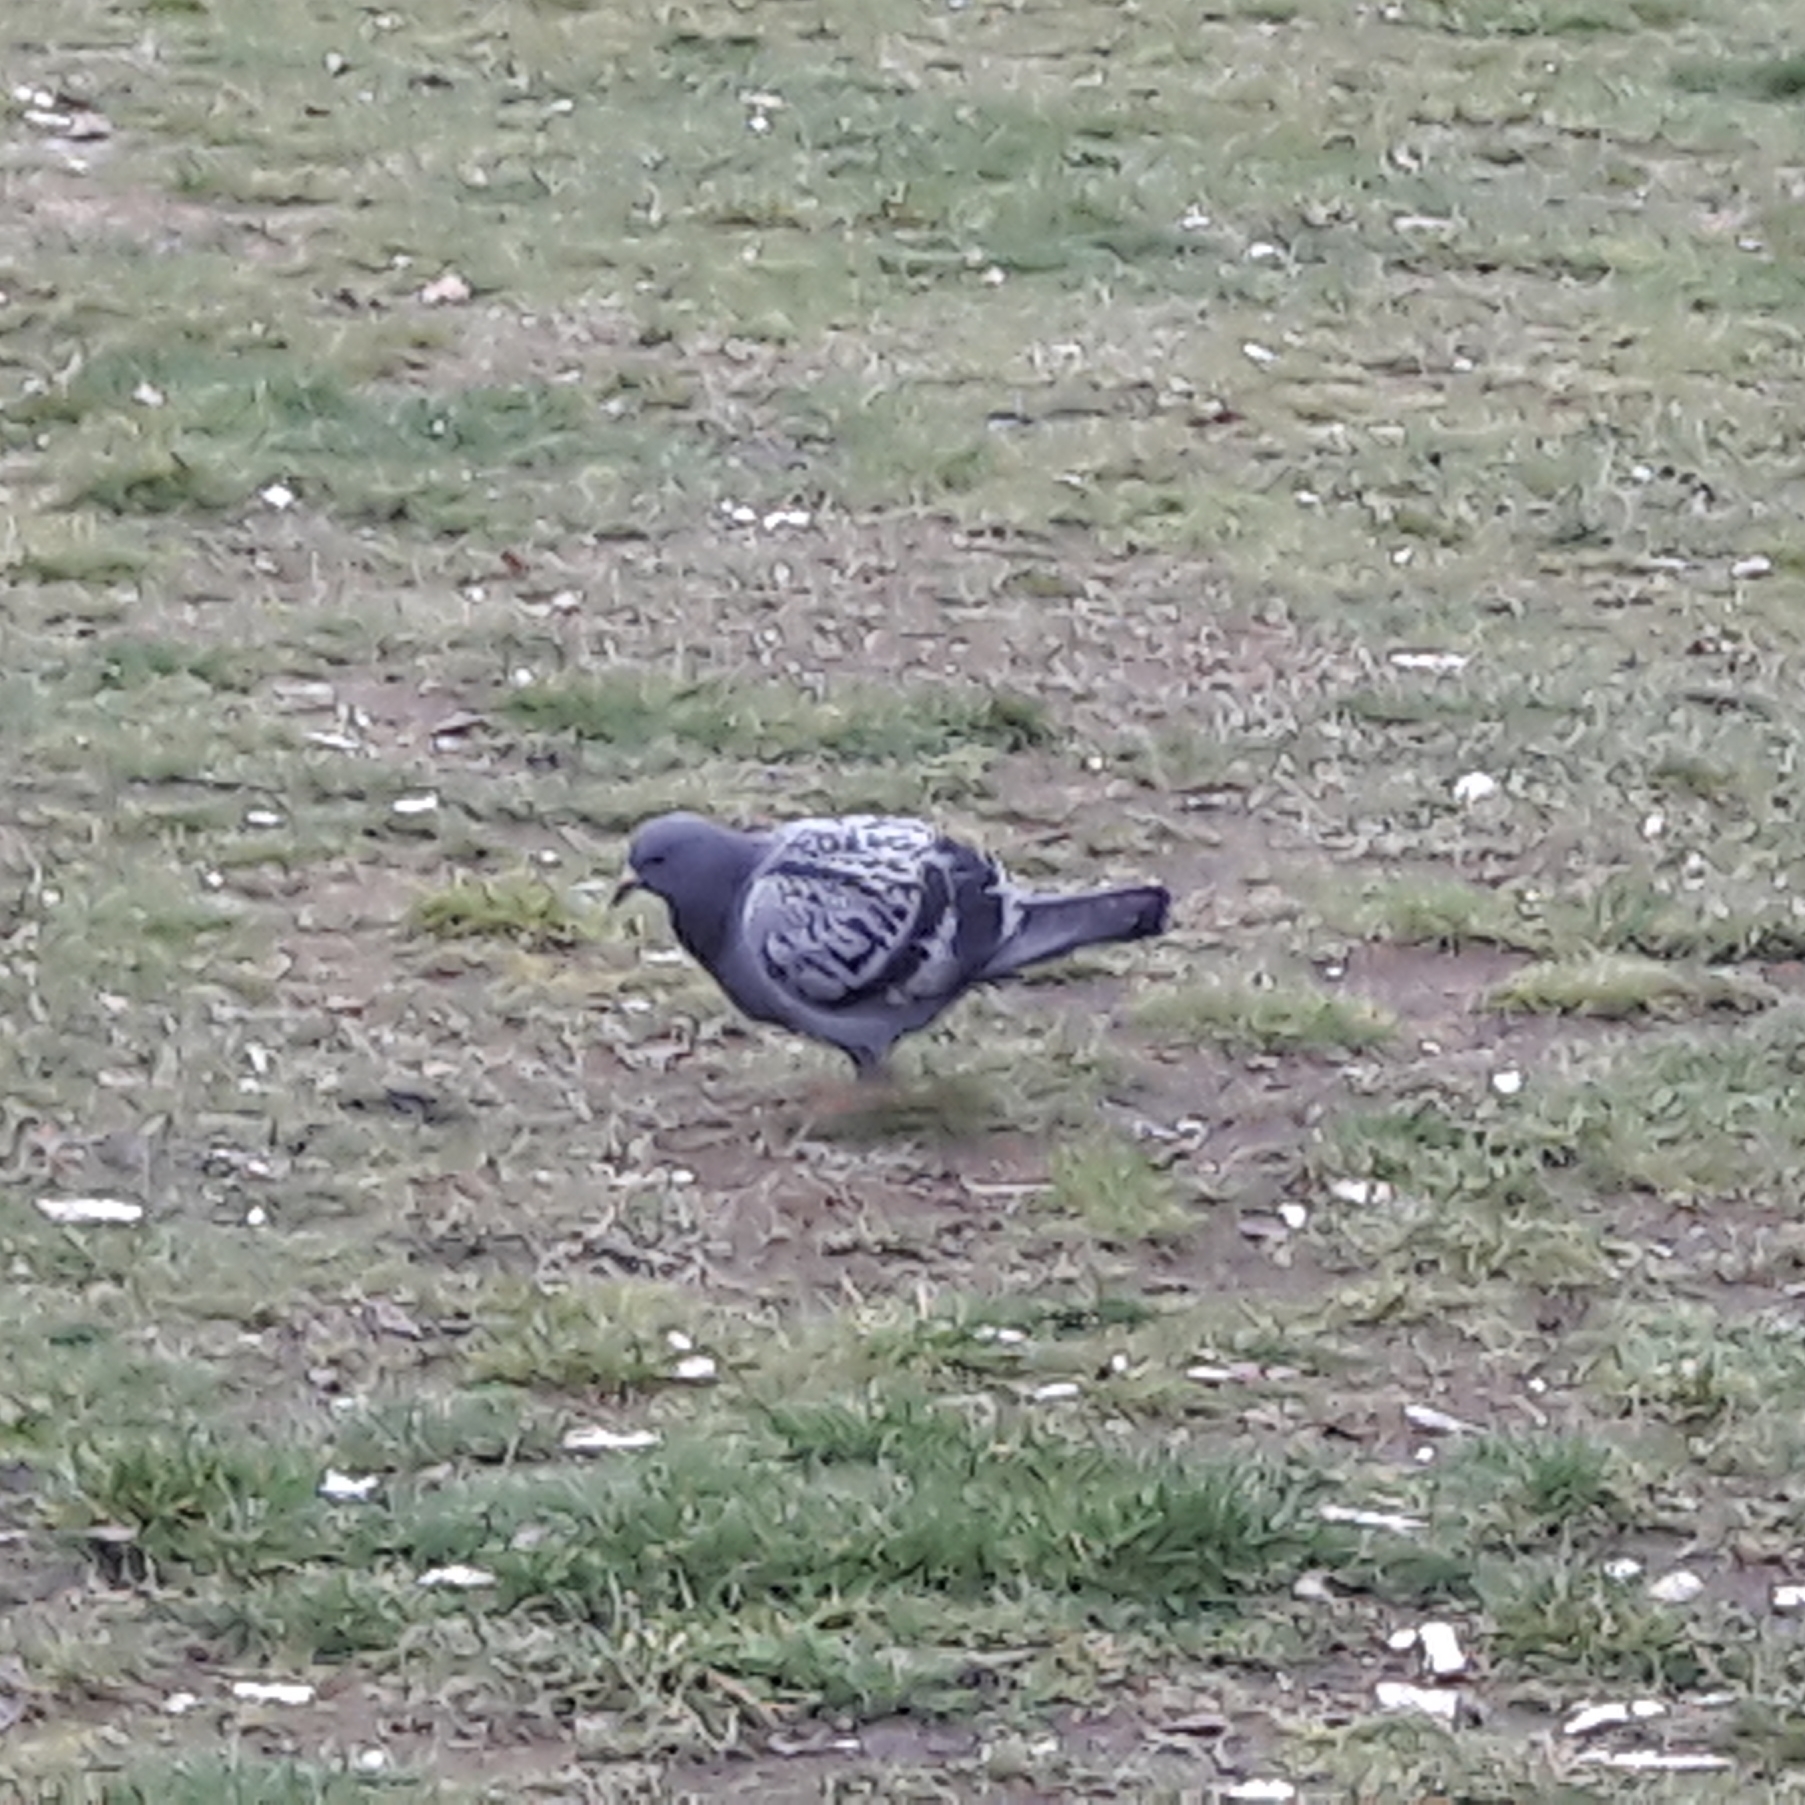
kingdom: Animalia
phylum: Chordata
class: Aves
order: Columbiformes
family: Columbidae
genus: Columba
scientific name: Columba livia
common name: Rock pigeon
